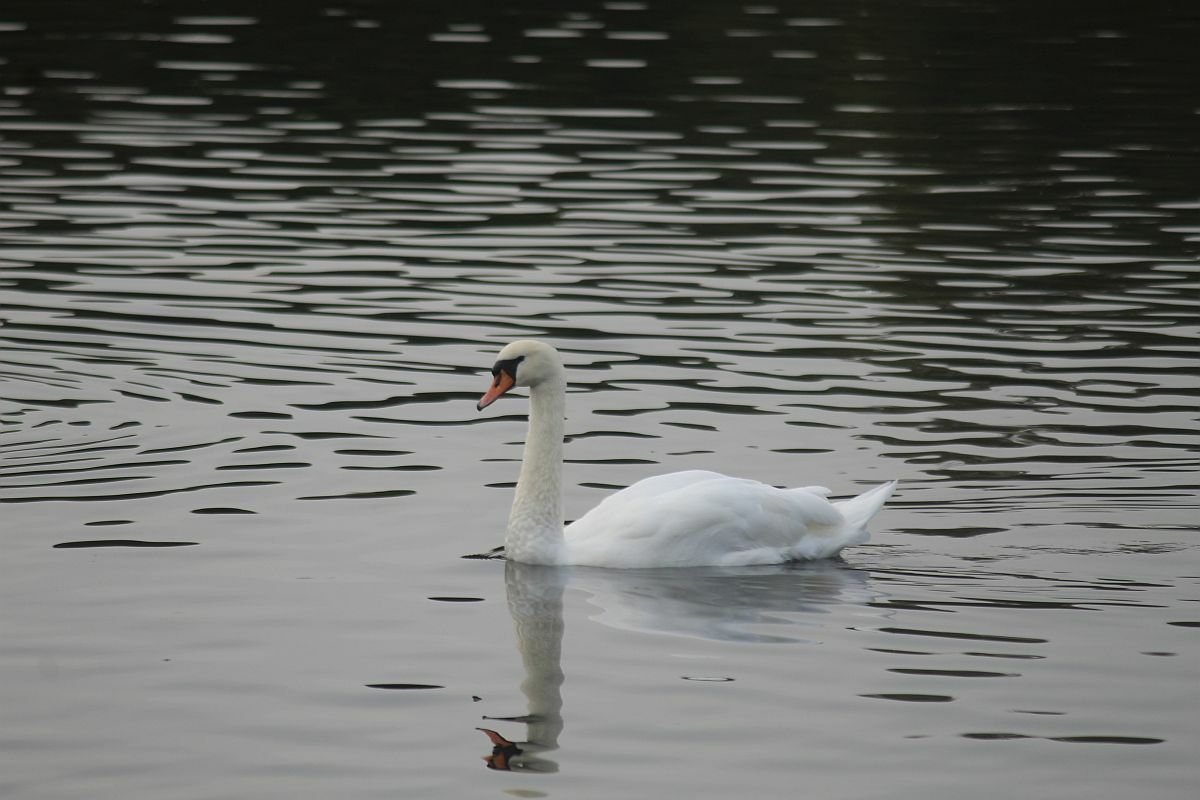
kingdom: Animalia
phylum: Chordata
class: Aves
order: Anseriformes
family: Anatidae
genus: Cygnus
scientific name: Cygnus olor
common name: Mute swan
